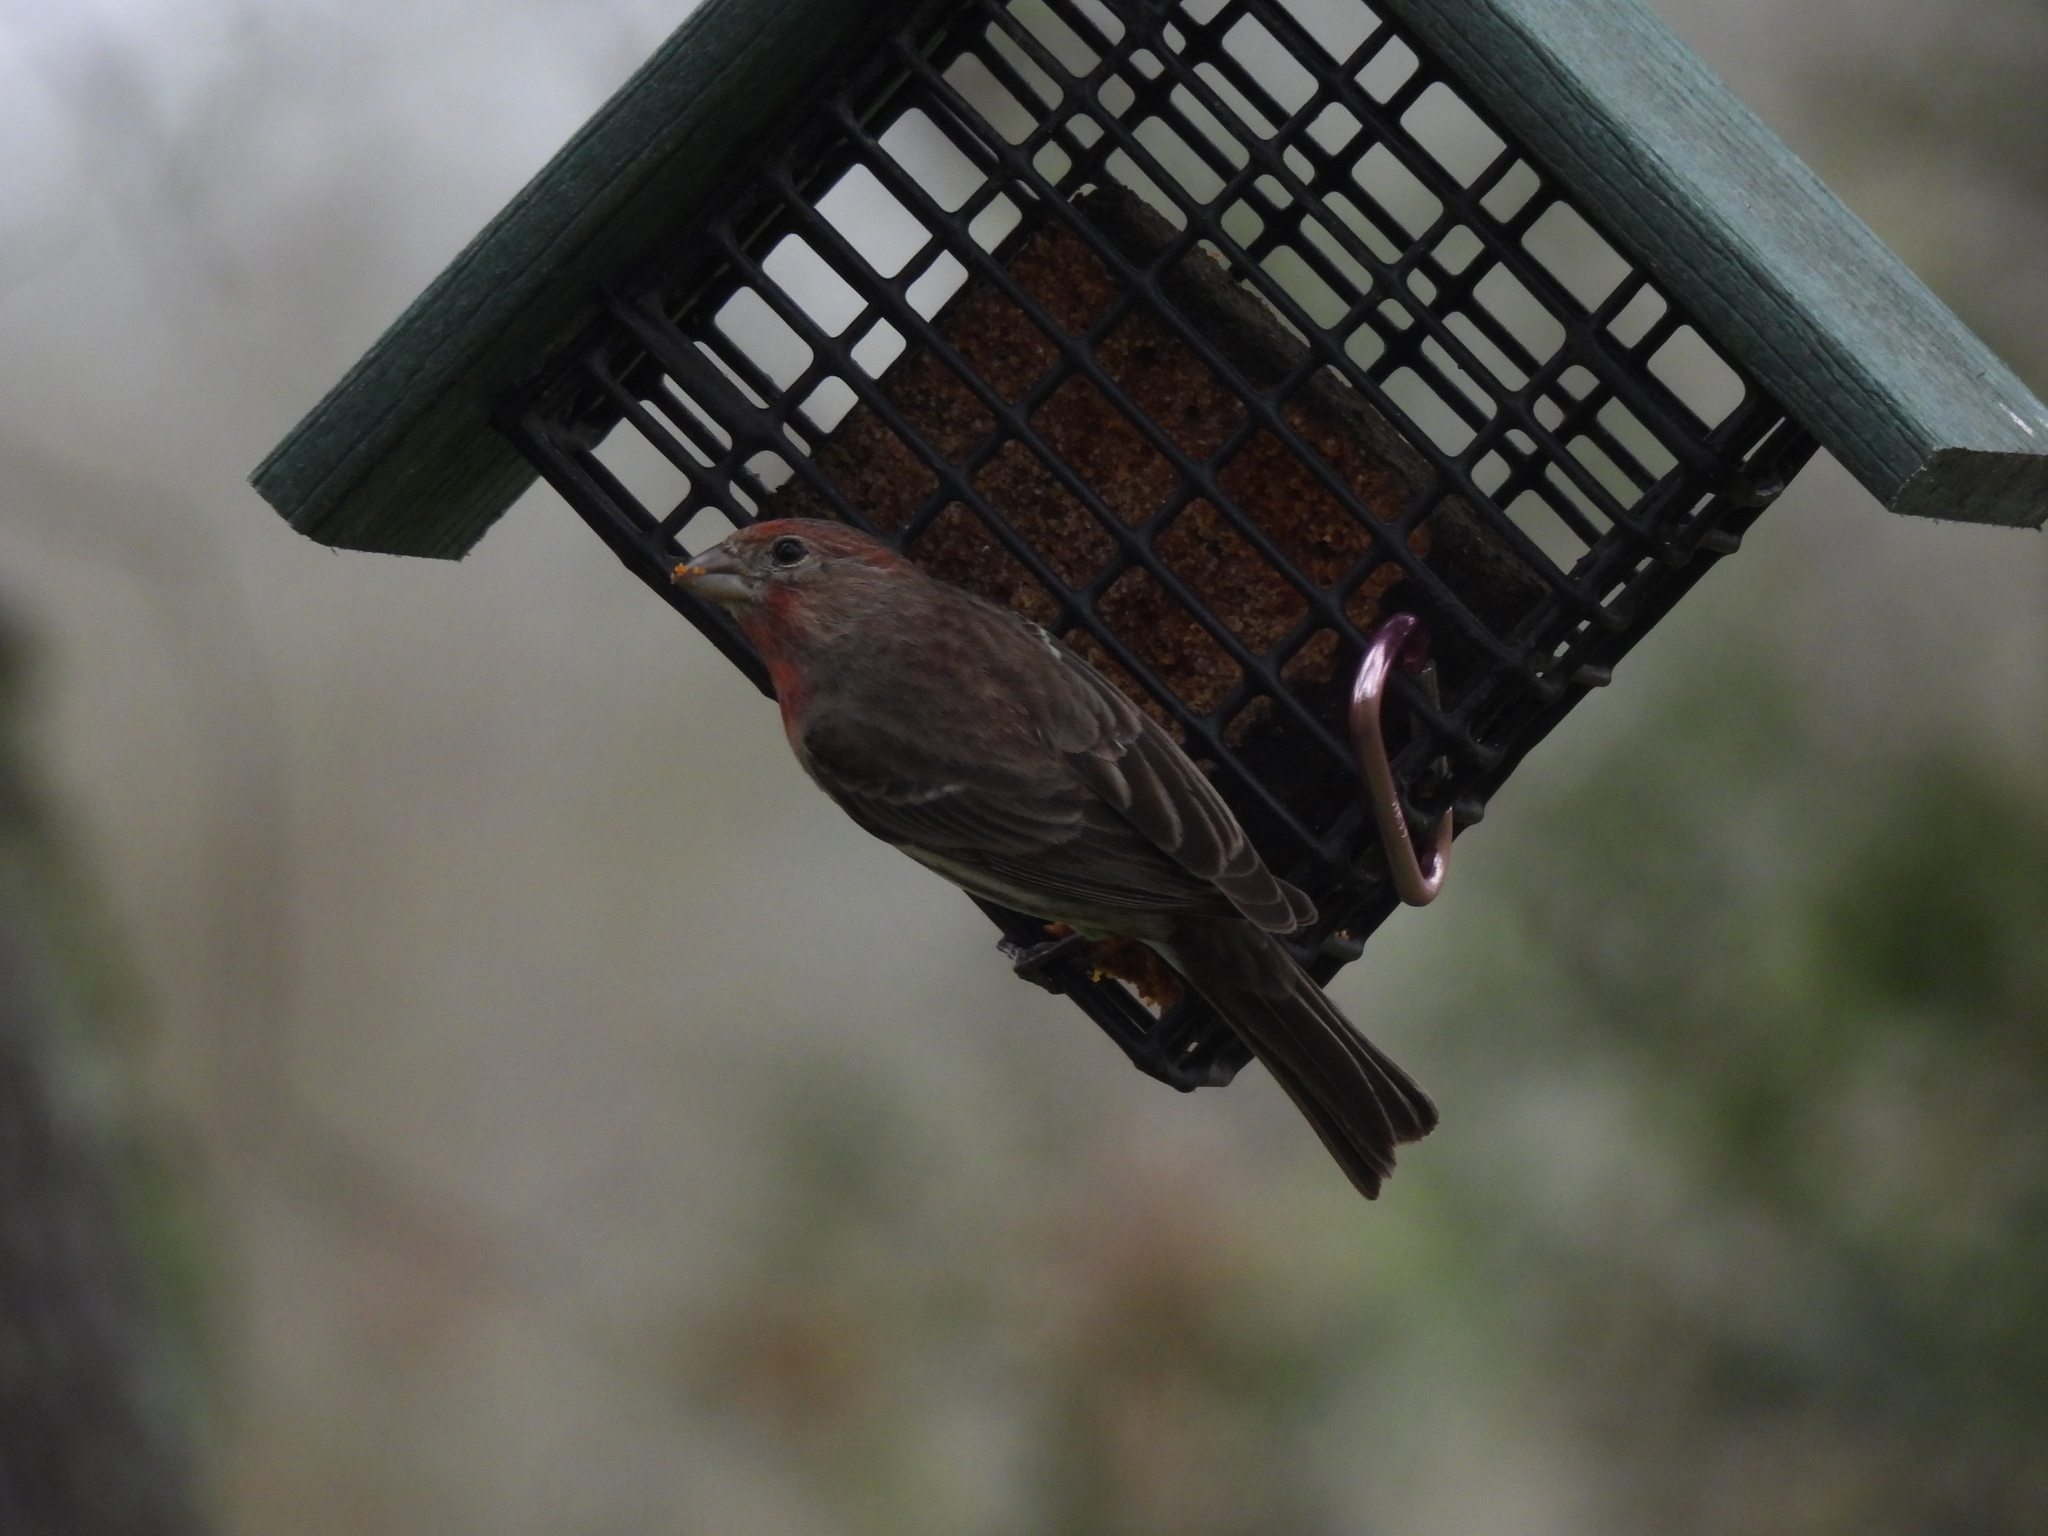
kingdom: Animalia
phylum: Chordata
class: Aves
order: Passeriformes
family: Fringillidae
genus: Haemorhous
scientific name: Haemorhous mexicanus
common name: House finch
